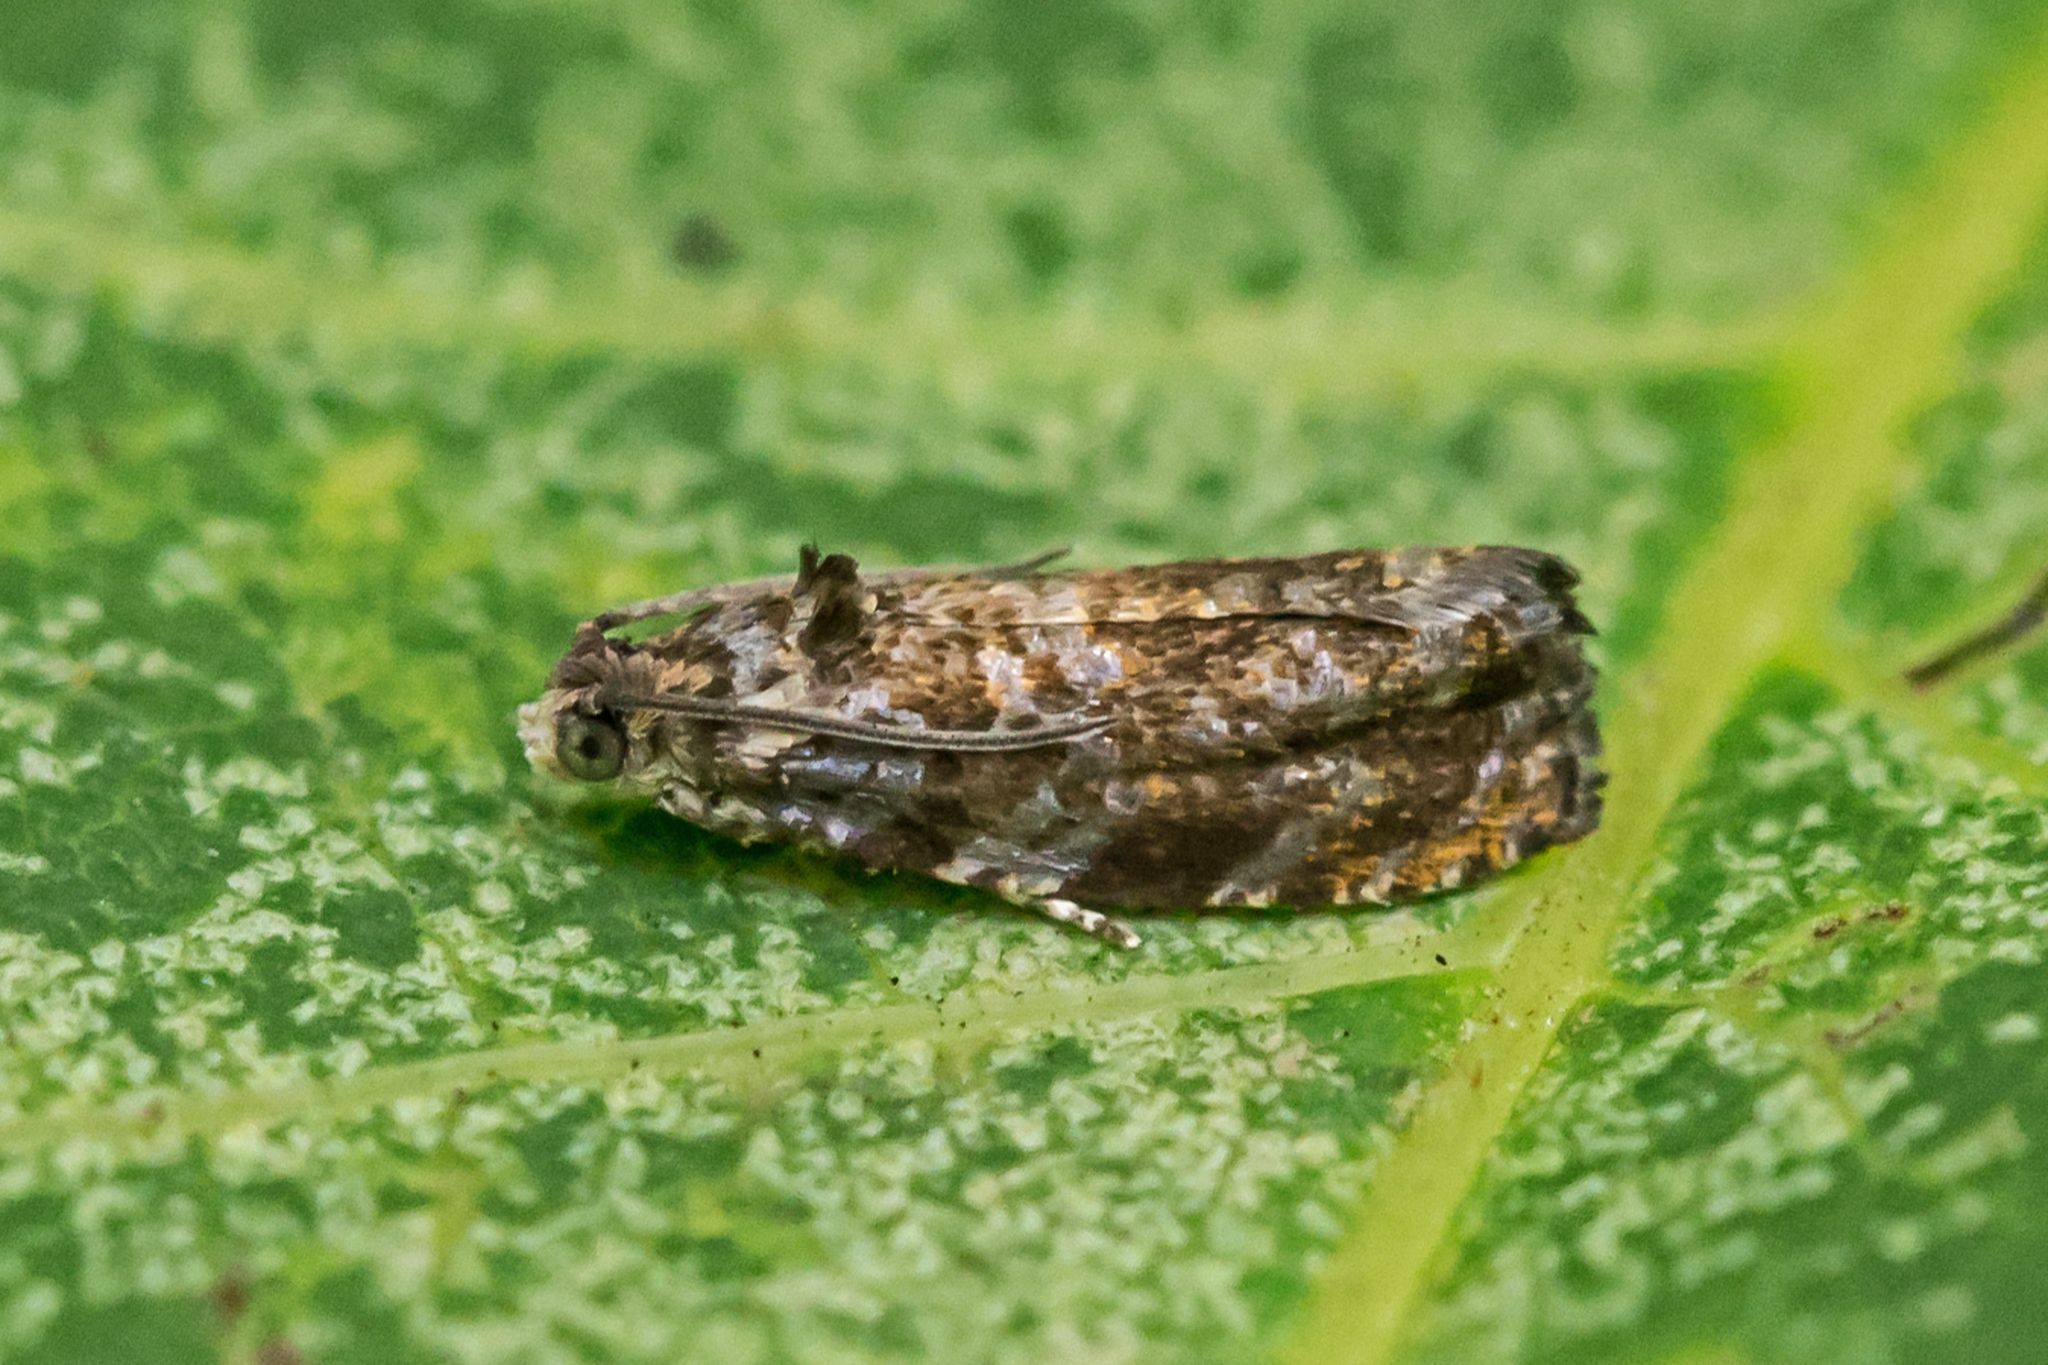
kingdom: Animalia
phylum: Arthropoda
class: Insecta
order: Lepidoptera
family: Tortricidae
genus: Pristerognatha
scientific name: Pristerognatha agilana
